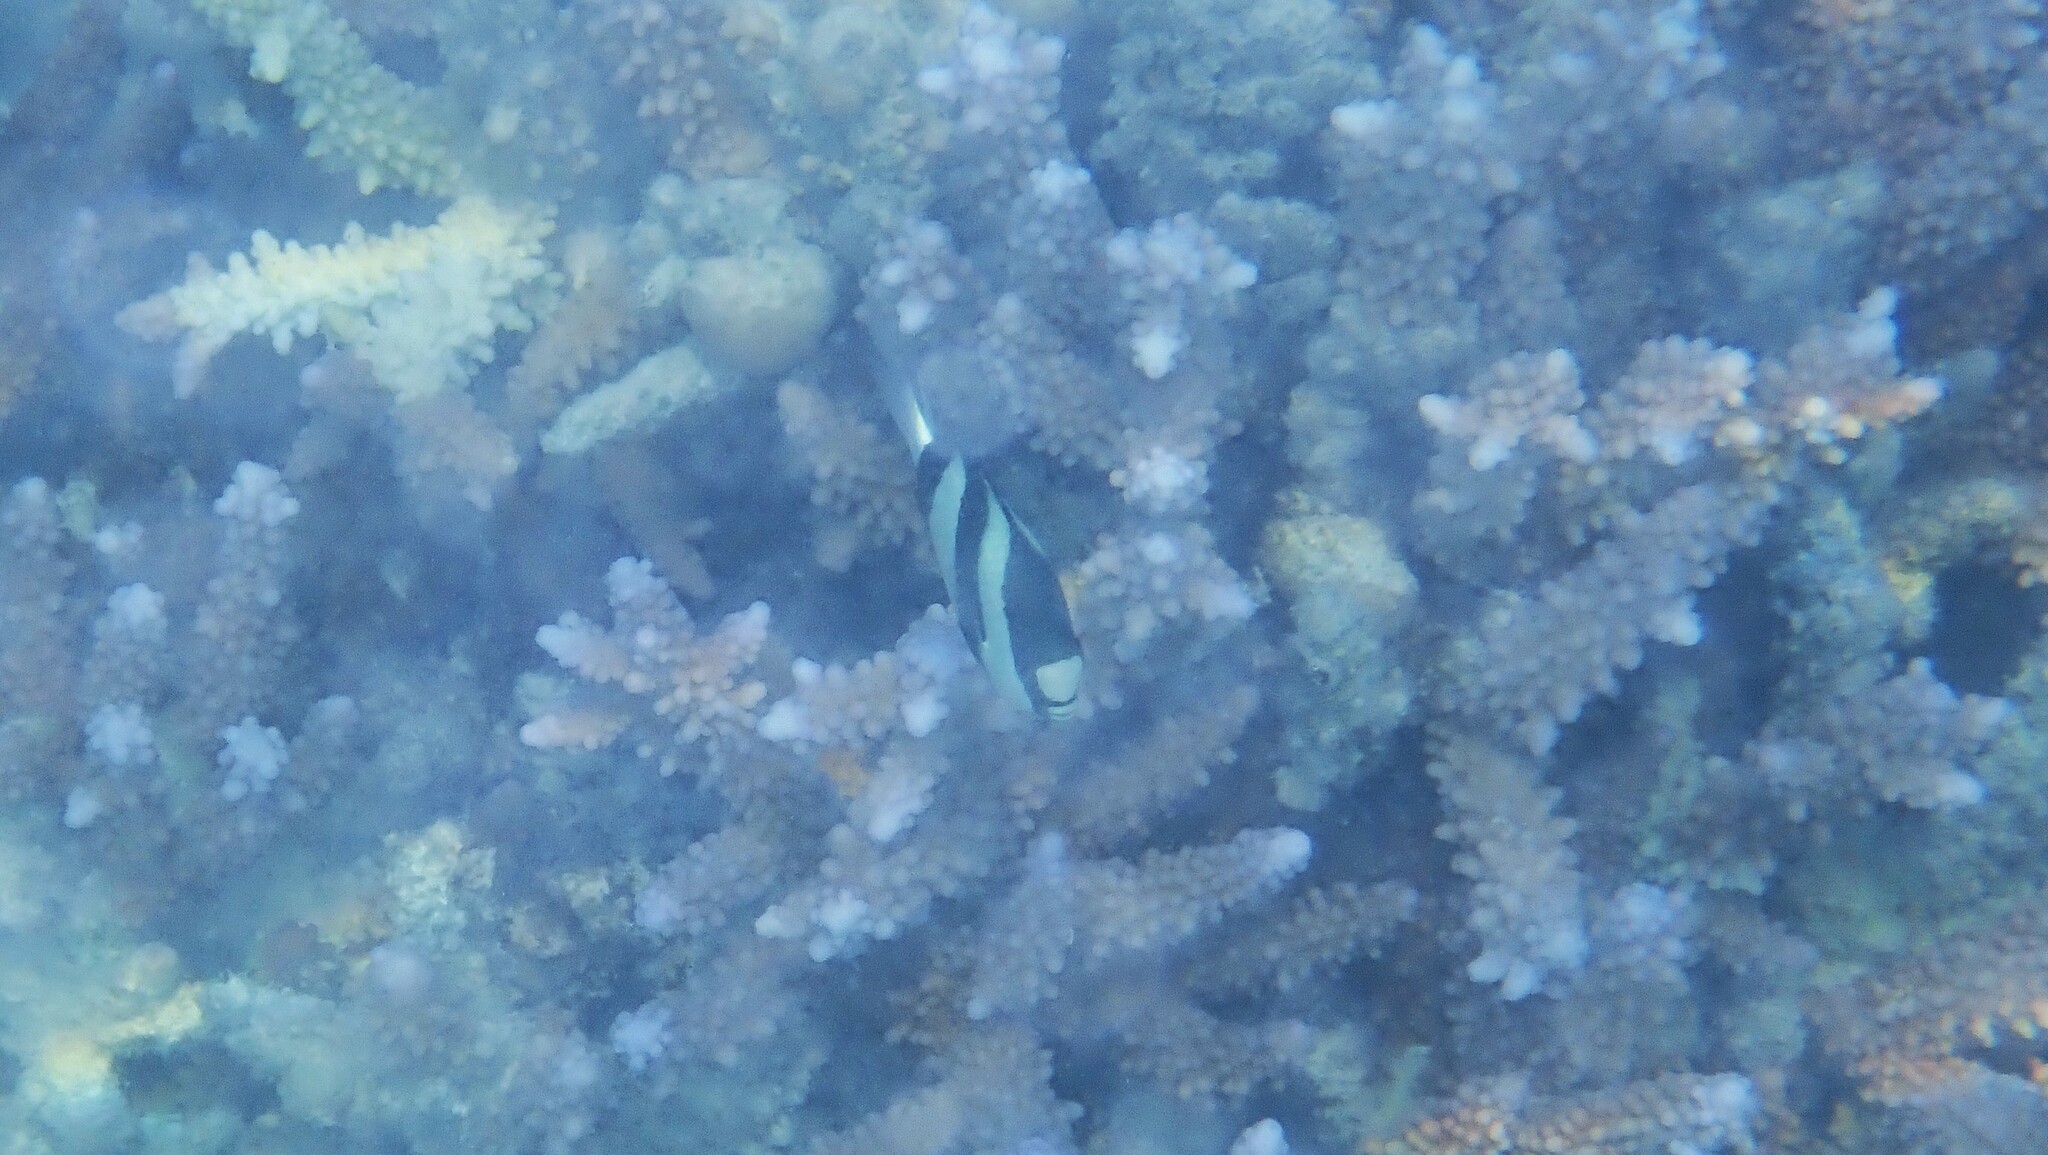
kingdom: Animalia
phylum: Chordata
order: Perciformes
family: Pomacentridae
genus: Dascyllus
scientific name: Dascyllus abudafur
